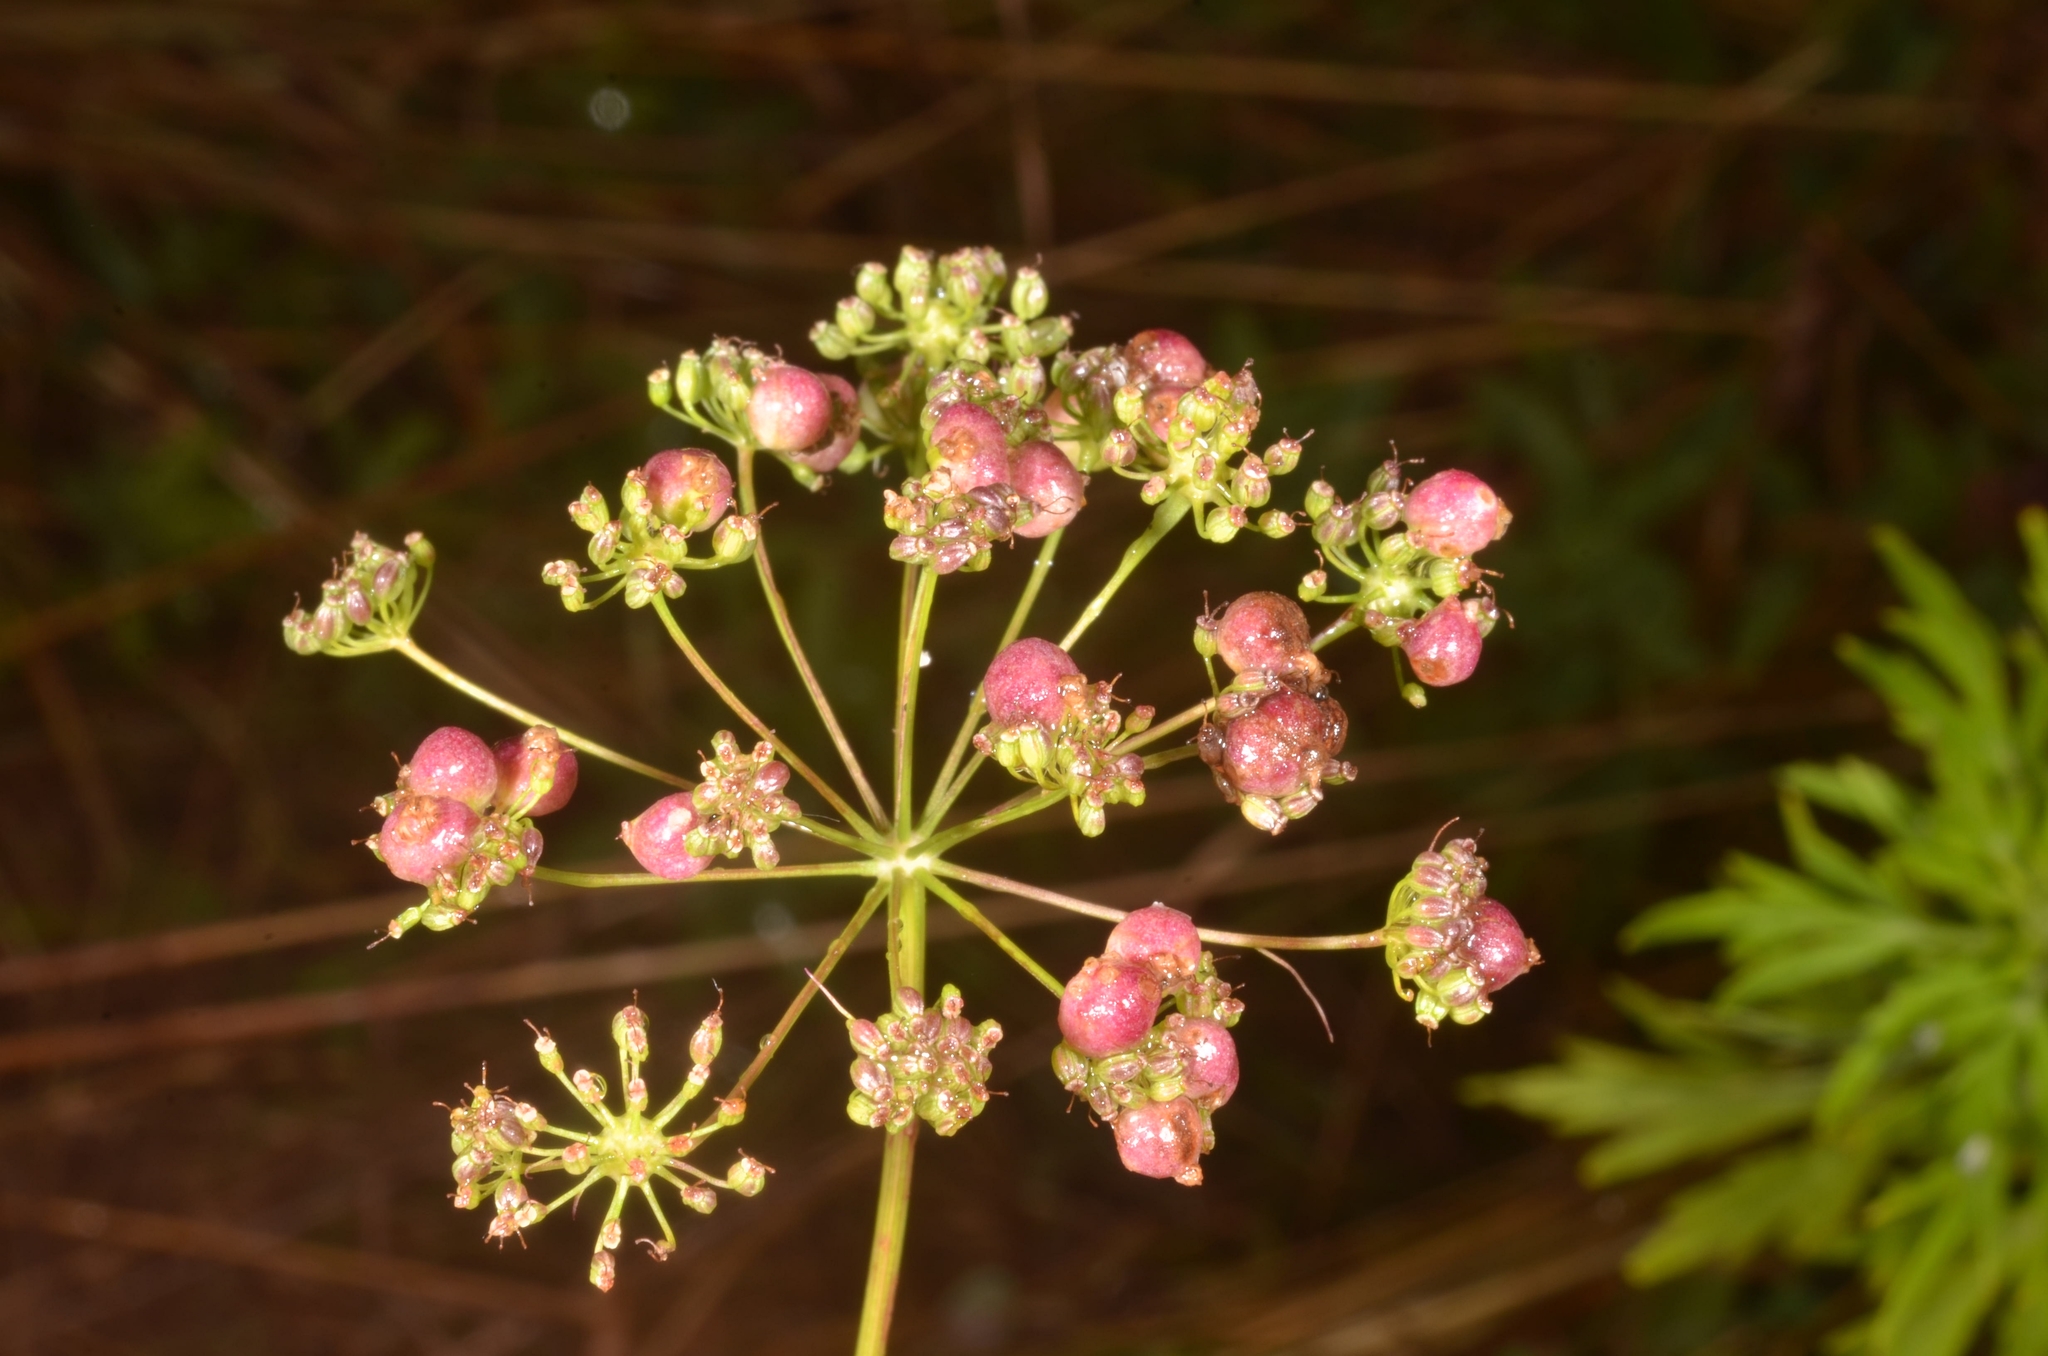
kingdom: Animalia
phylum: Arthropoda
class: Insecta
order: Diptera
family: Cecidomyiidae
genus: Kiefferia
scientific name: Kiefferia pericarpiicola
